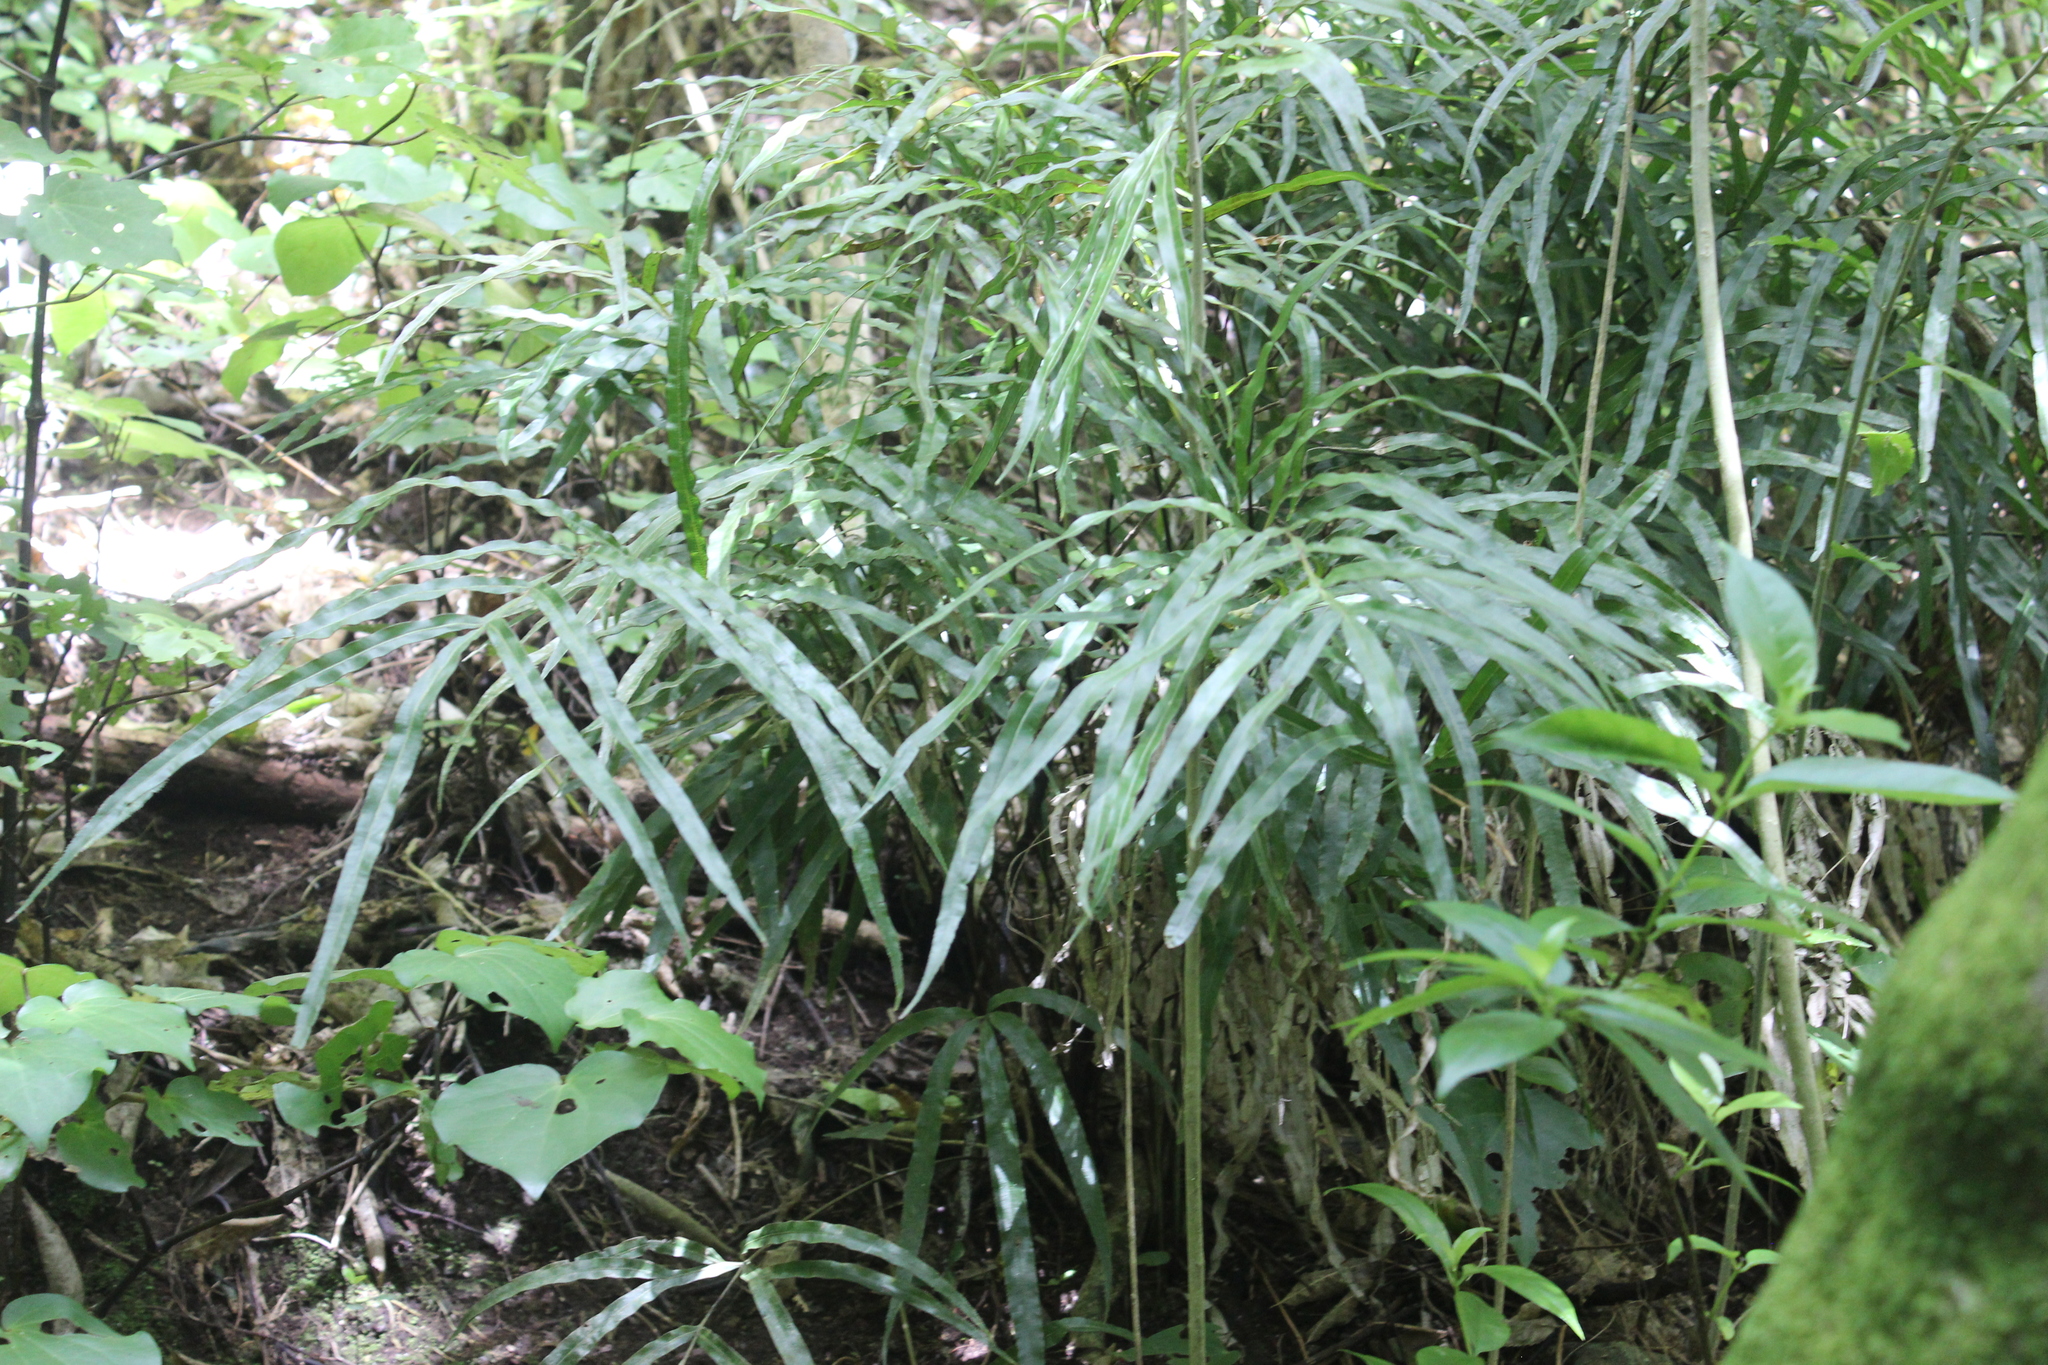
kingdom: Plantae
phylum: Tracheophyta
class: Polypodiopsida
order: Polypodiales
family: Pteridaceae
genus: Pteris
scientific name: Pteris cretica
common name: Ribbon fern
